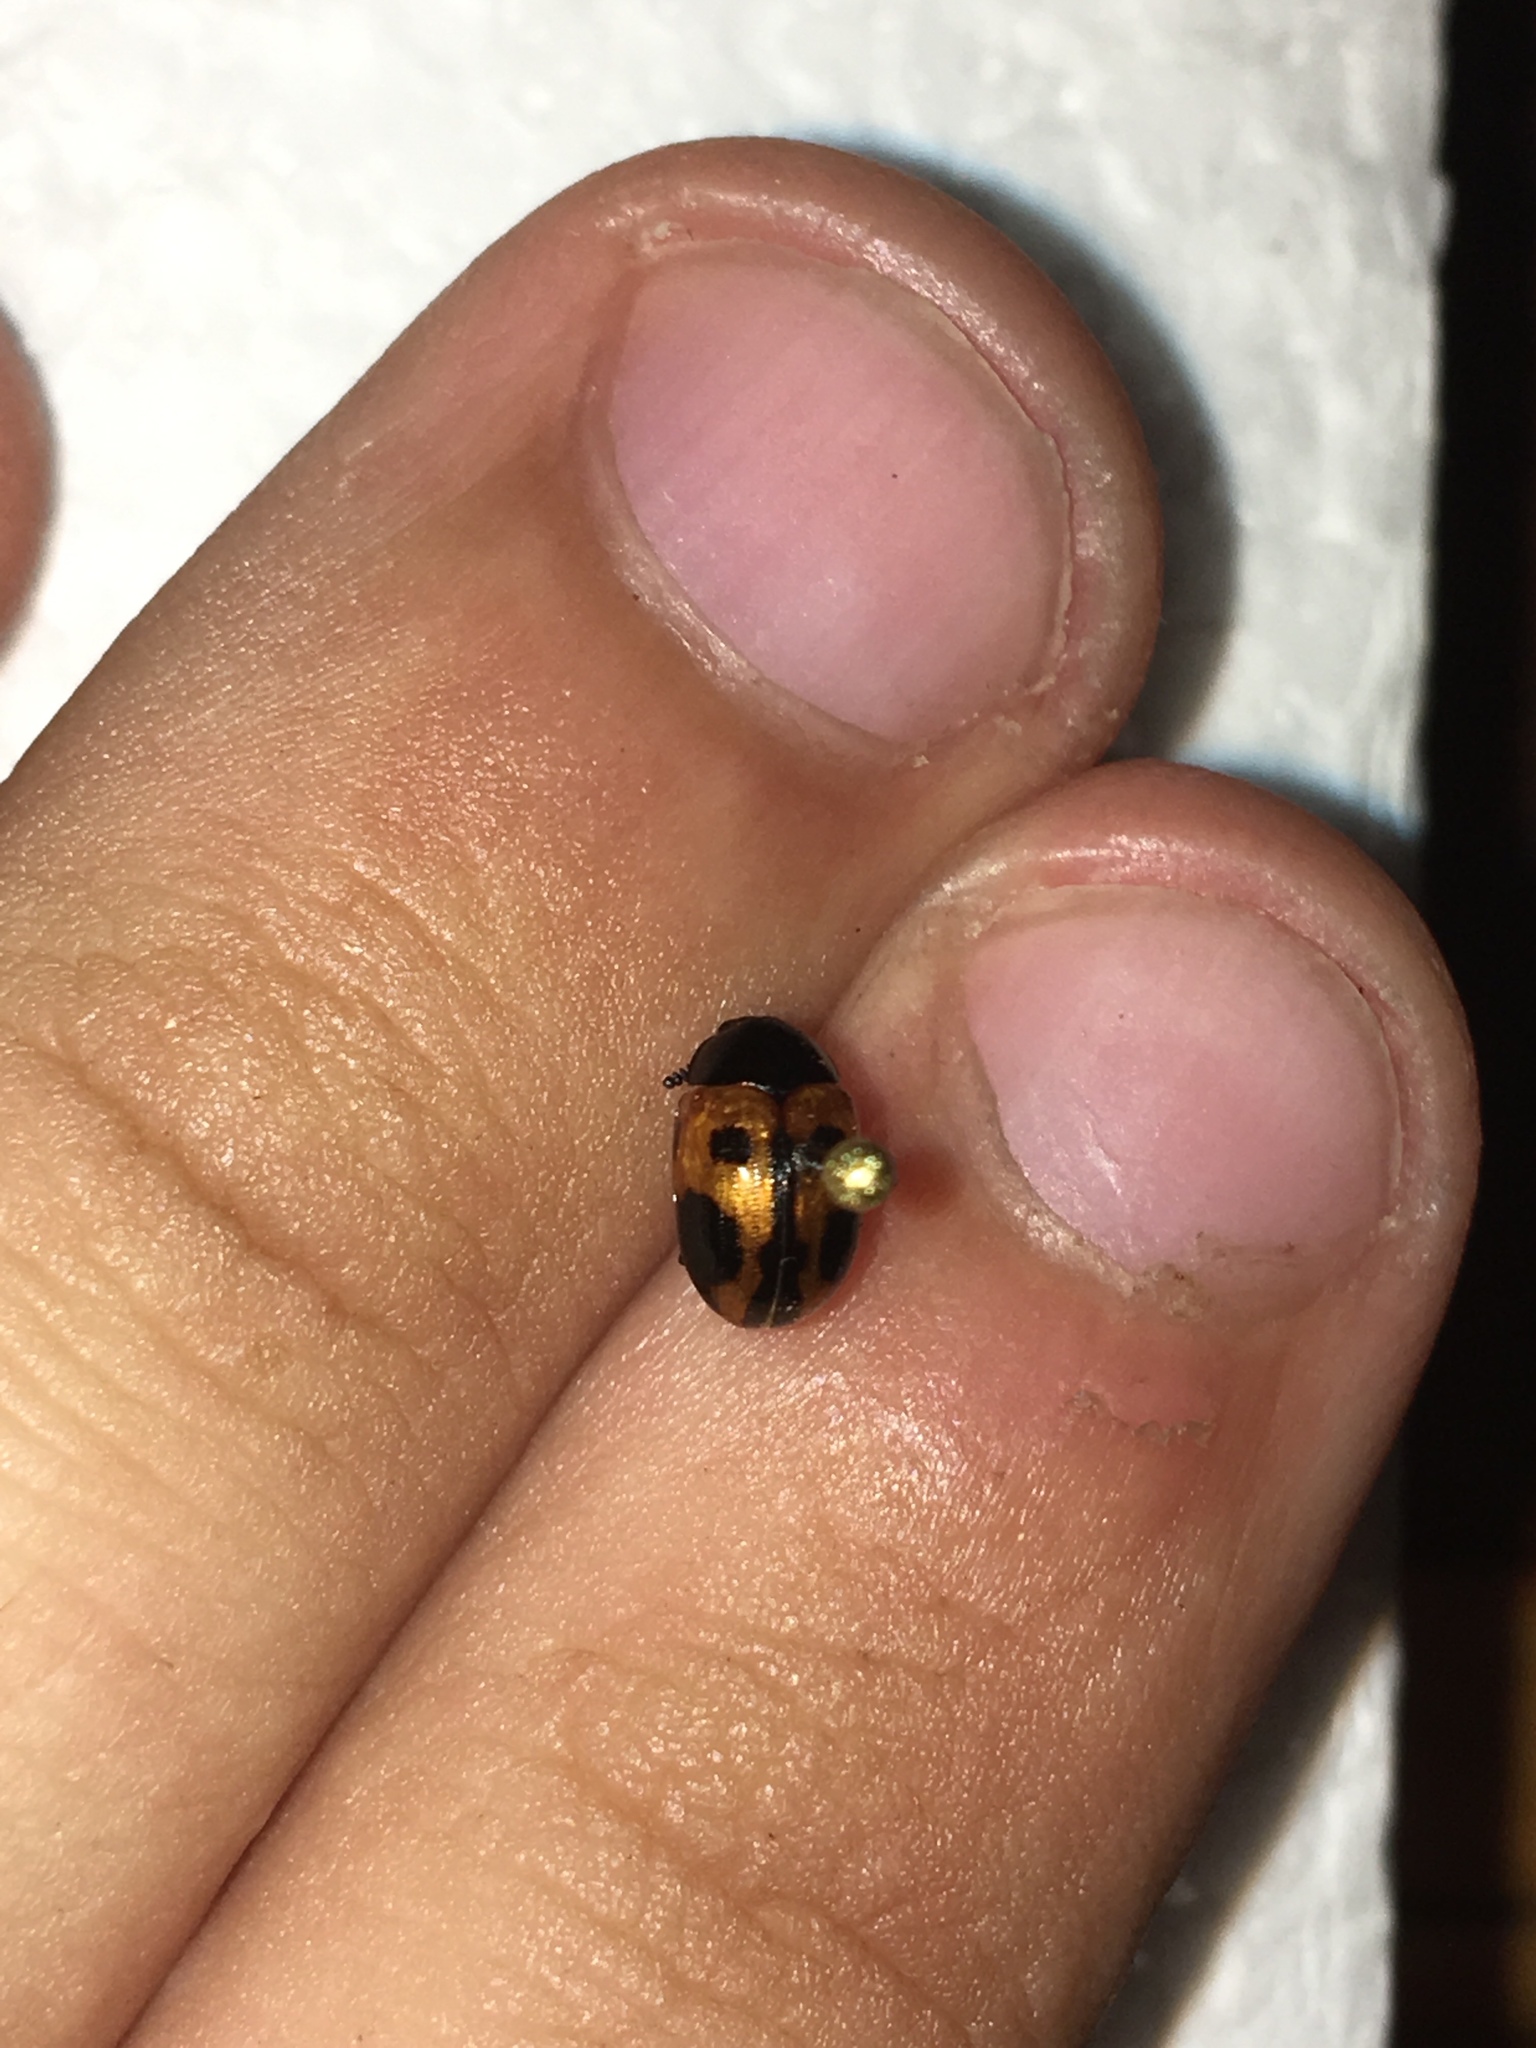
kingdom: Animalia
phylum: Arthropoda
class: Insecta
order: Coleoptera
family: Tenebrionidae
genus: Diaperis
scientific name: Diaperis maculata
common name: Darkling beetle
